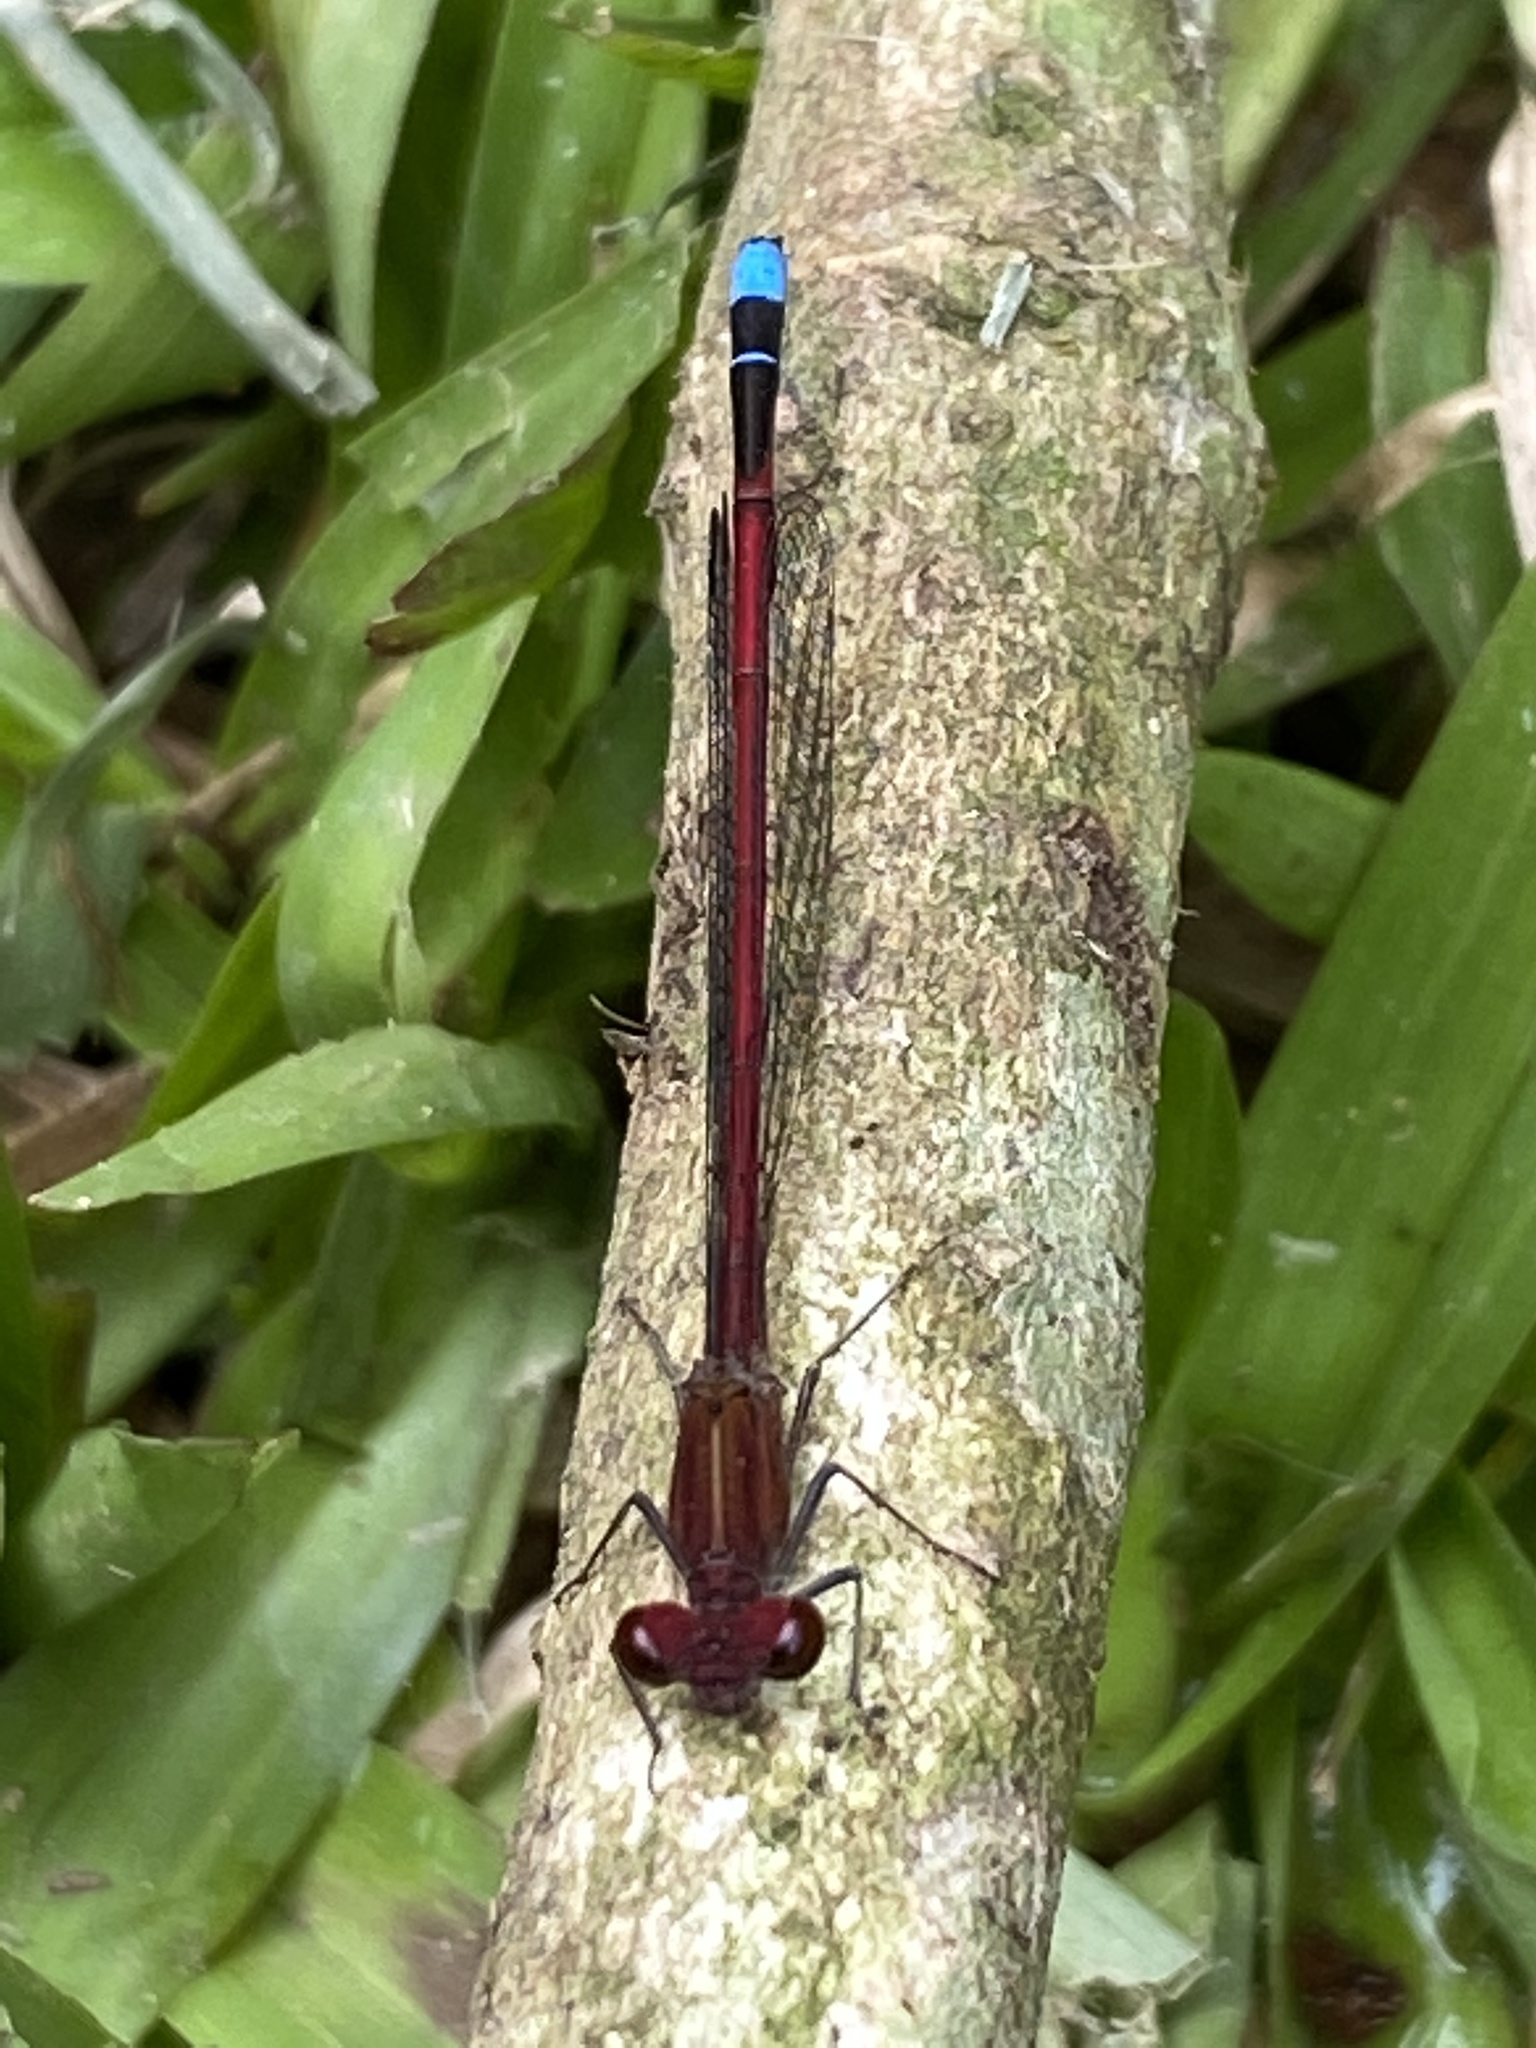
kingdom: Animalia
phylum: Arthropoda
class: Insecta
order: Odonata
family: Coenagrionidae
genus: Oxyagrion
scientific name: Oxyagrion simile
